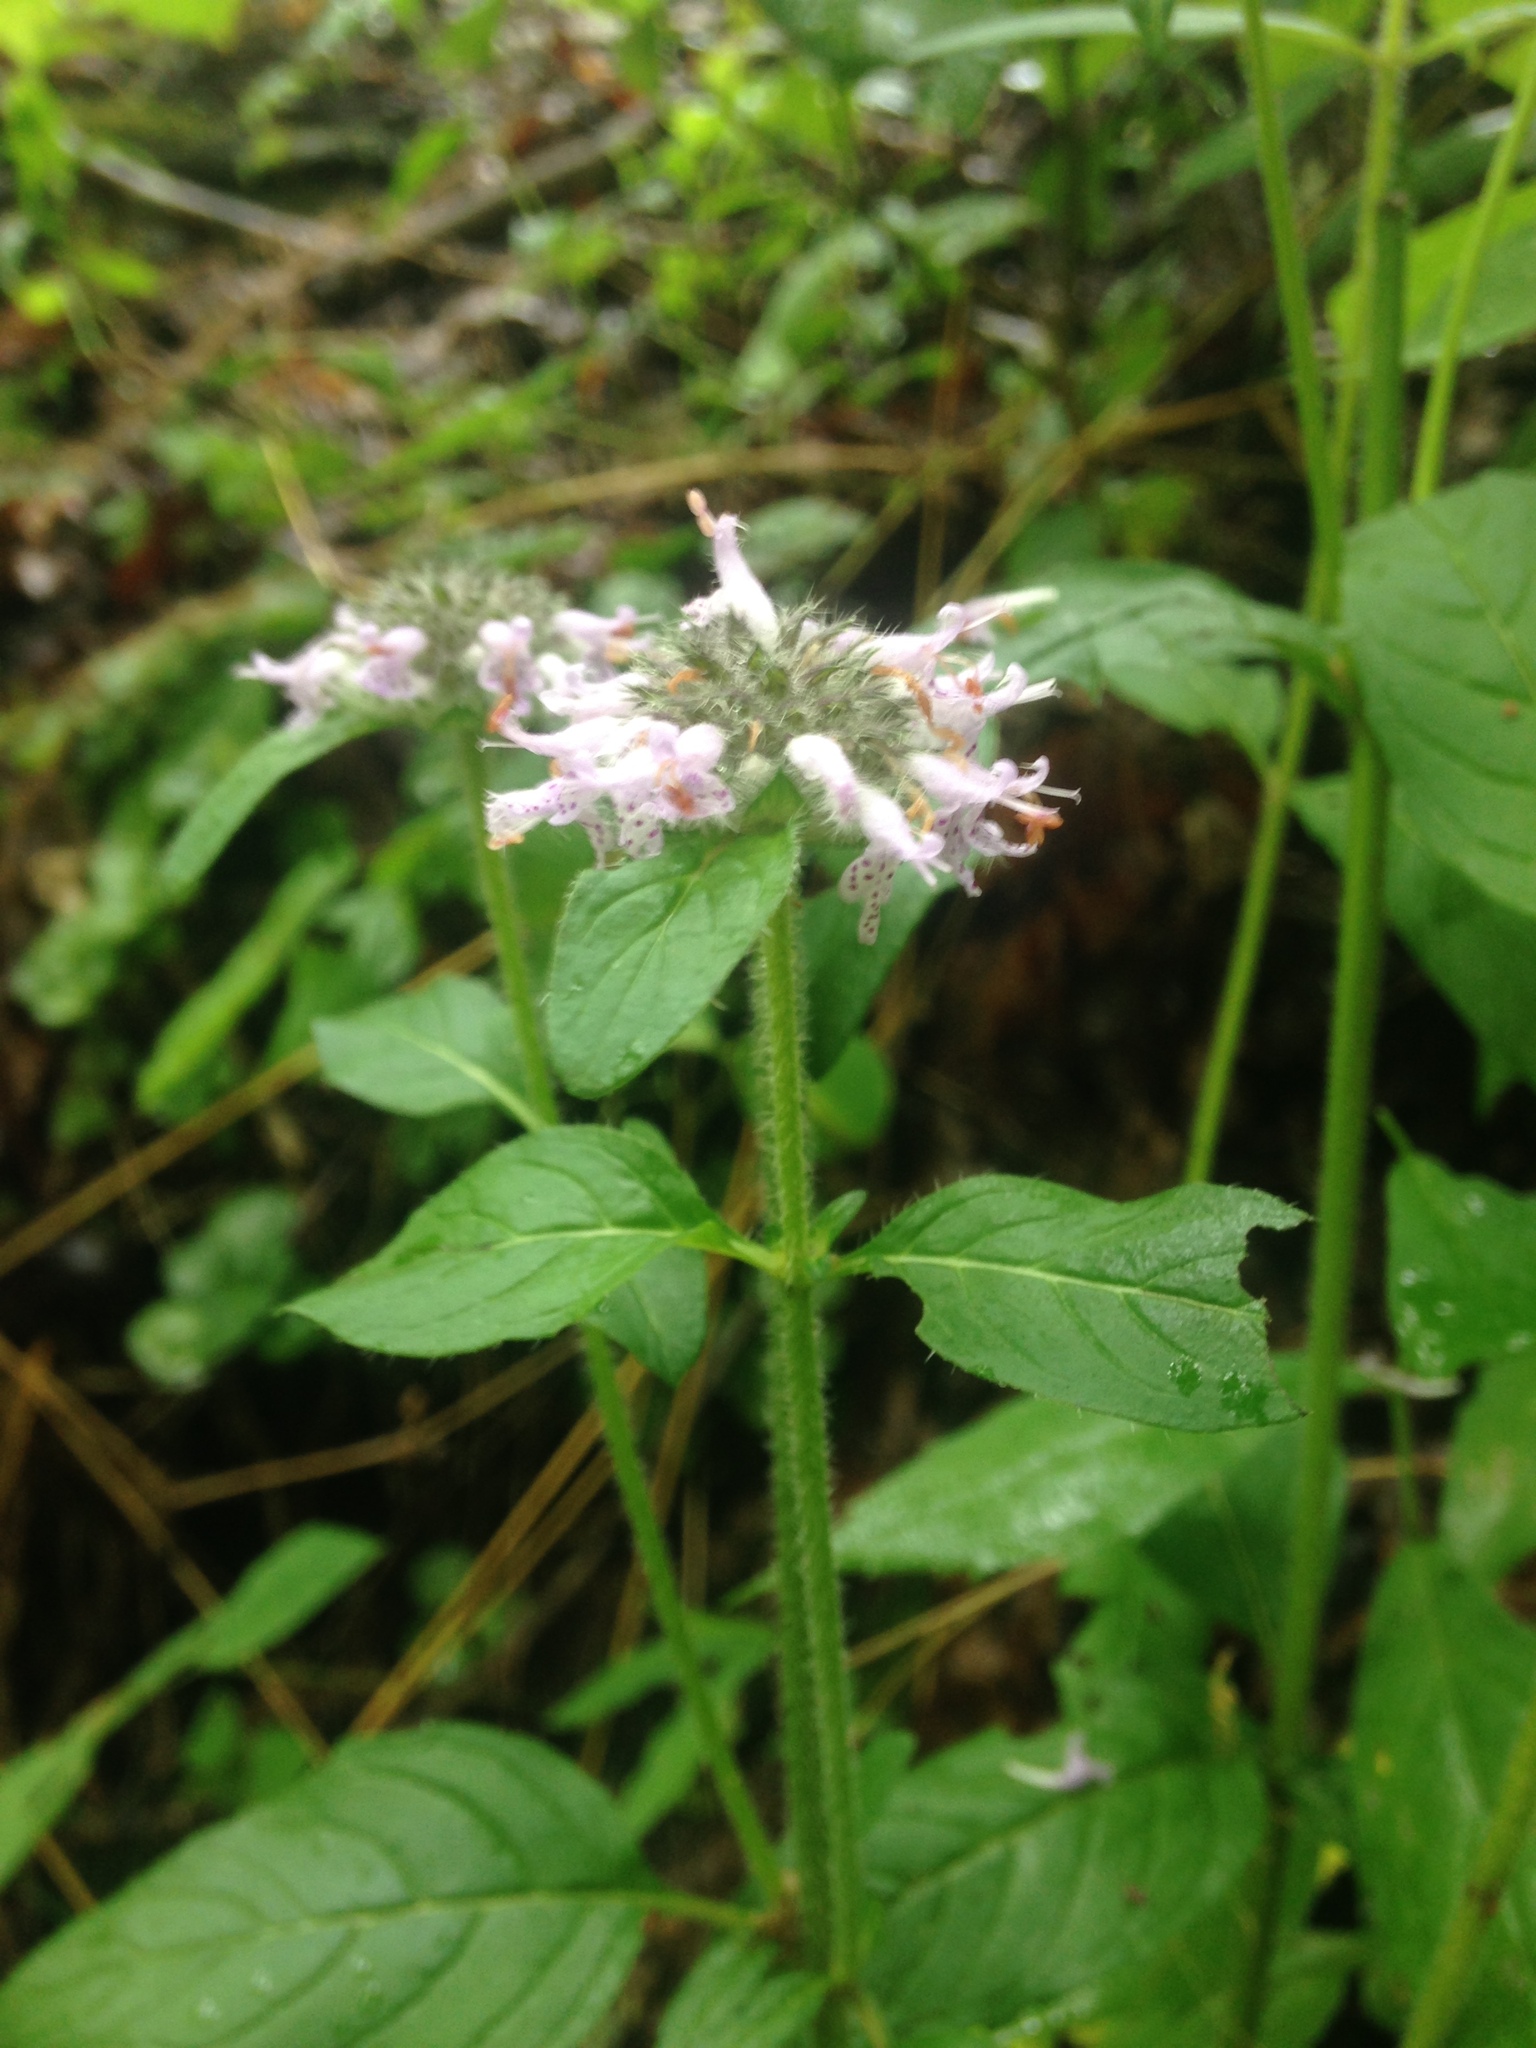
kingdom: Plantae
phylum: Tracheophyta
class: Magnoliopsida
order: Lamiales
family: Lamiaceae
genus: Blephilia
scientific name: Blephilia ciliata
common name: Downy blephilia
